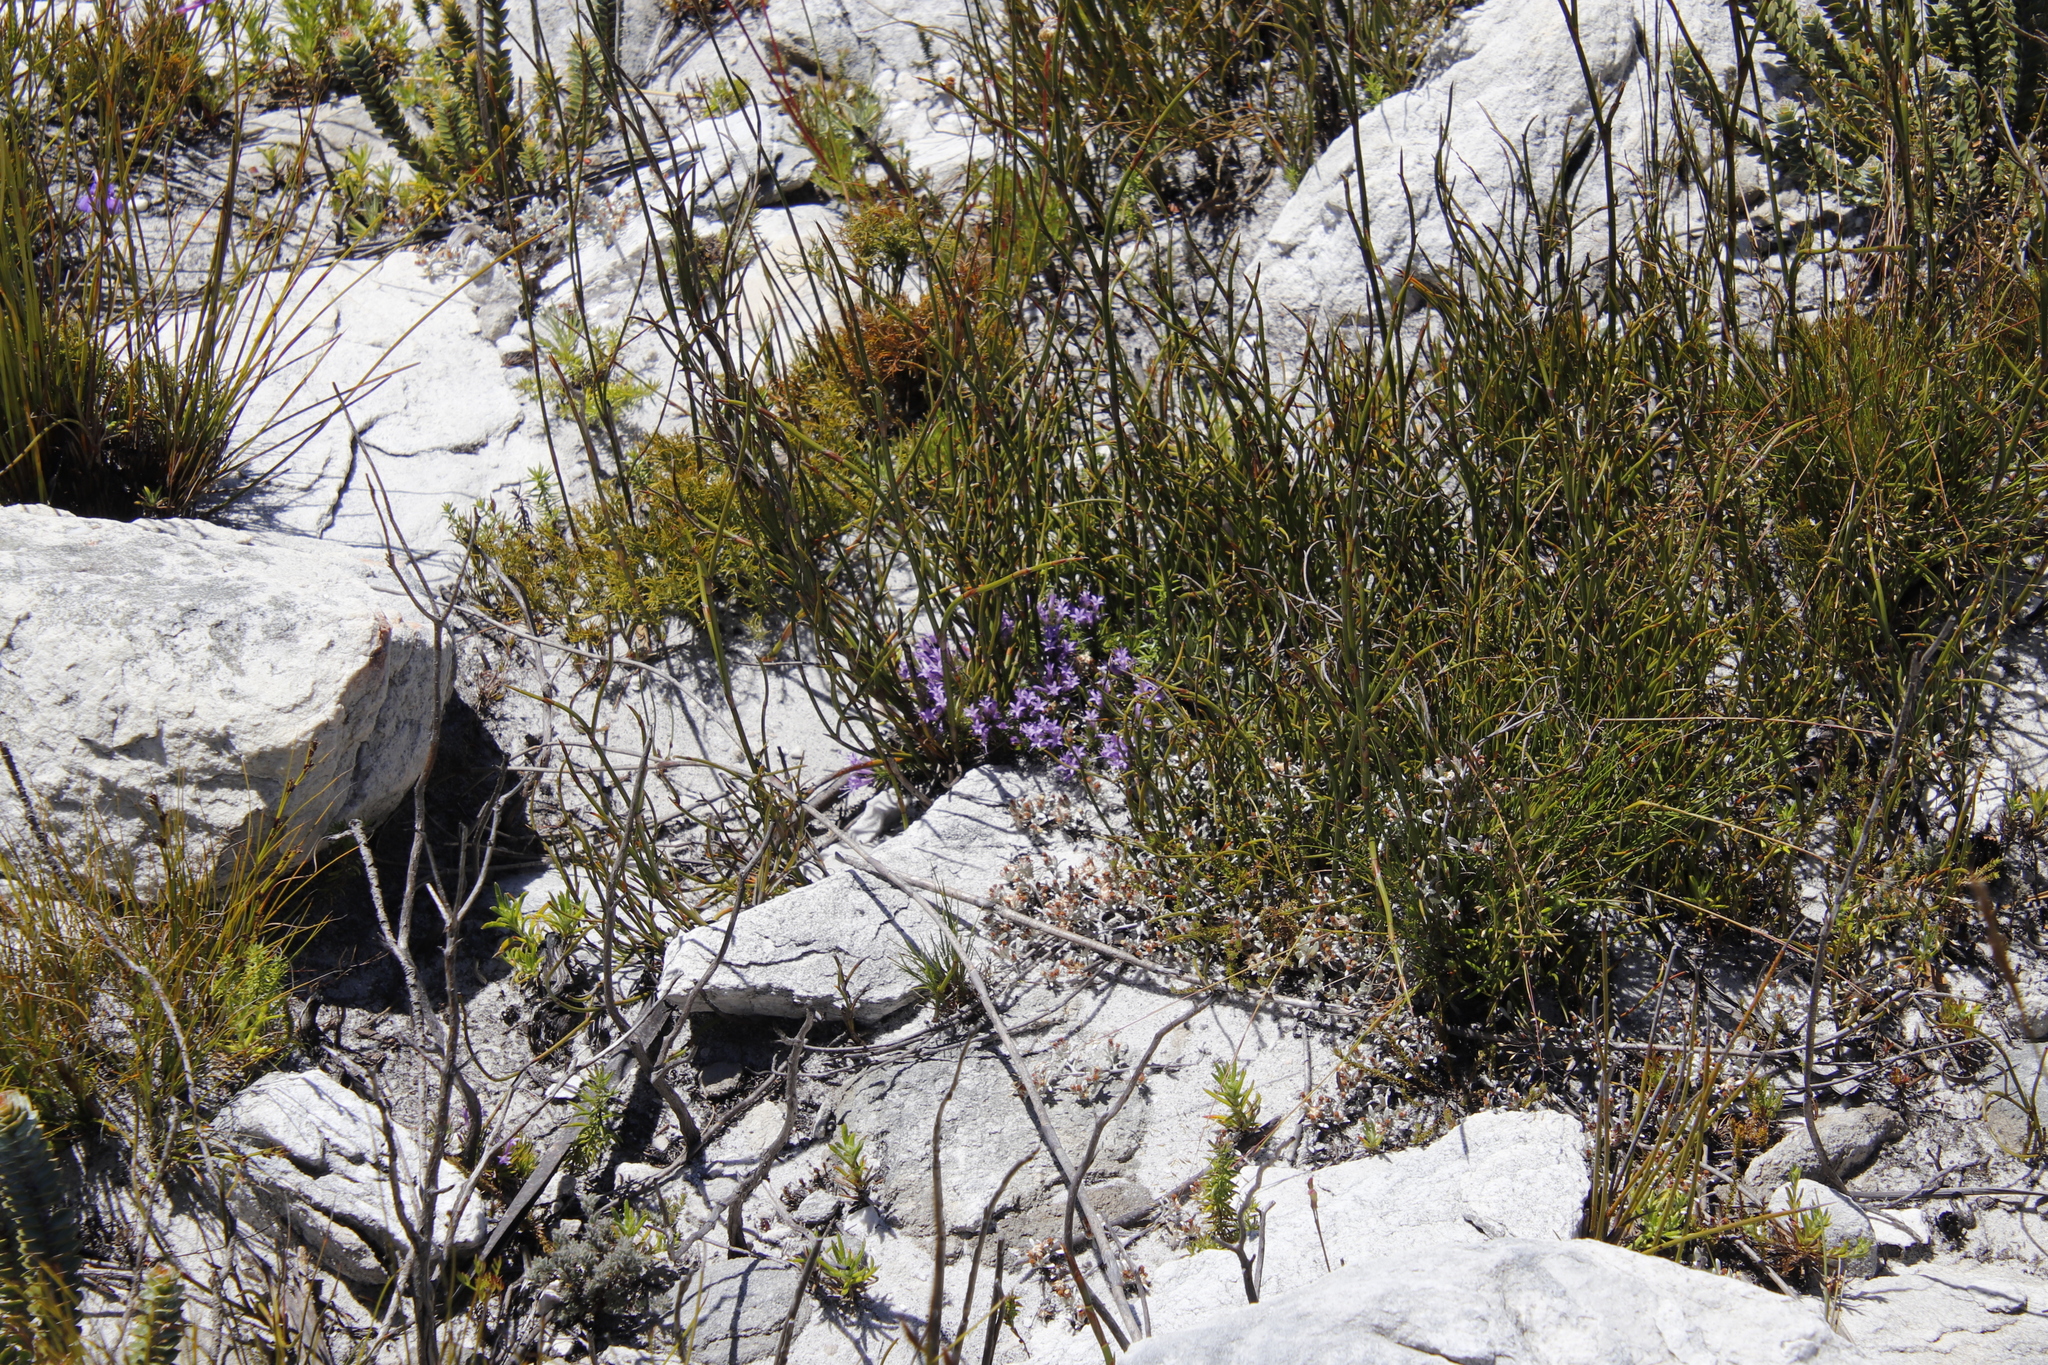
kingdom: Plantae
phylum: Tracheophyta
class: Magnoliopsida
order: Asterales
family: Campanulaceae
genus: Merciera
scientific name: Merciera azurea
